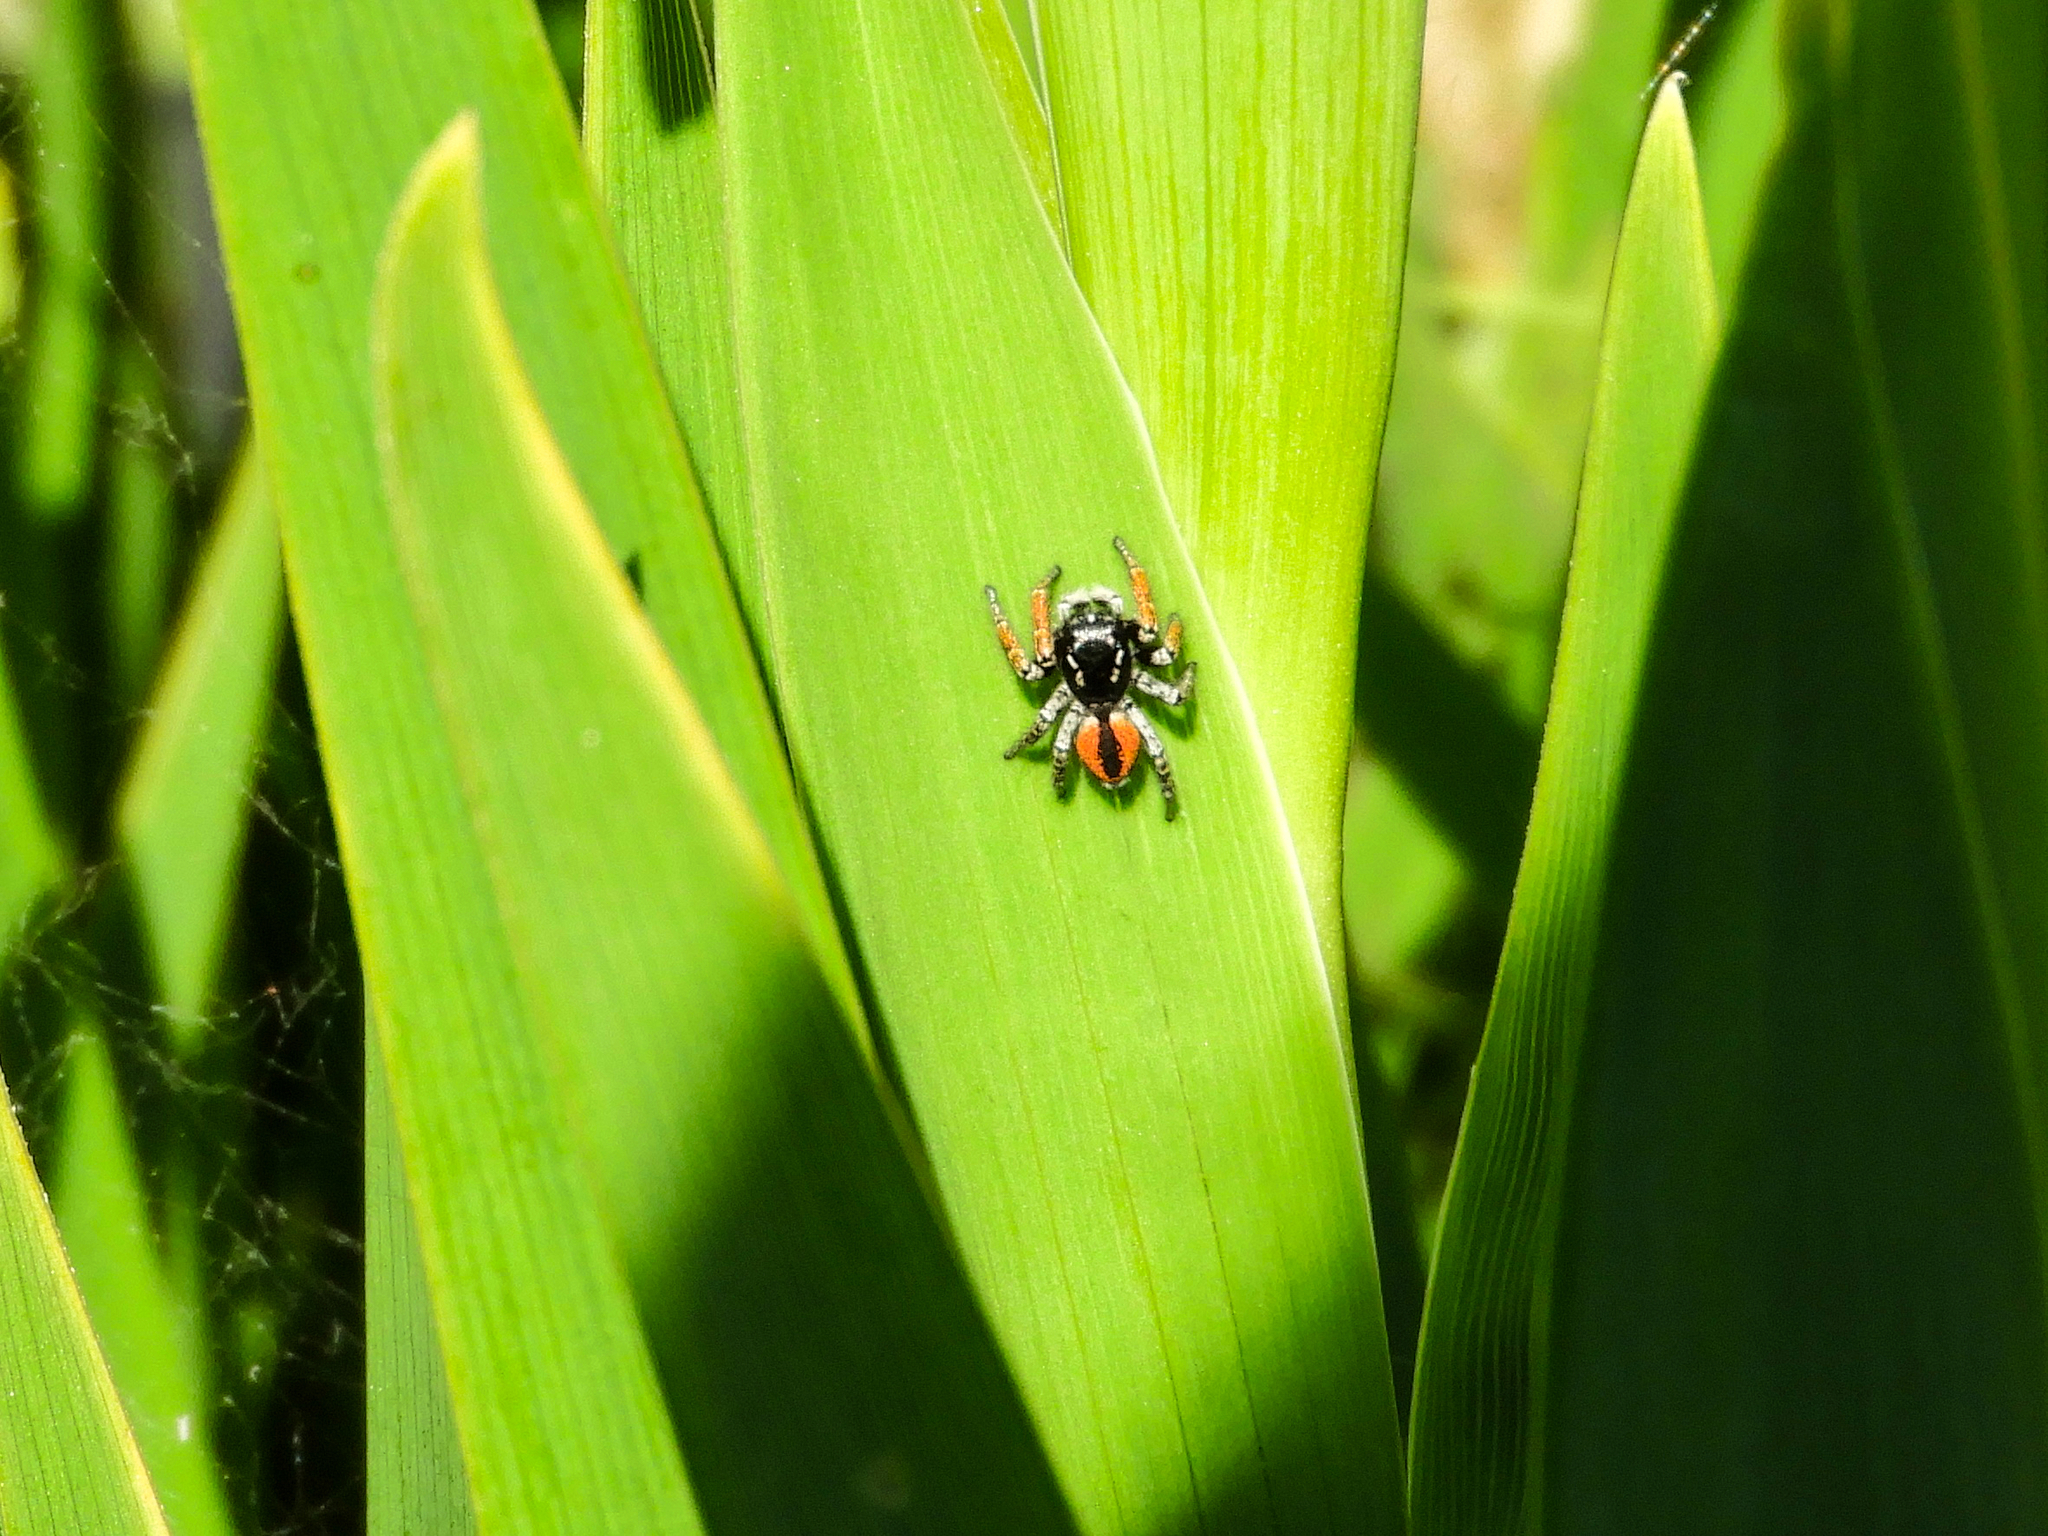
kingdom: Animalia
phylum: Arthropoda
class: Arachnida
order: Araneae
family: Salticidae
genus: Philaeus
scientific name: Philaeus chrysops
